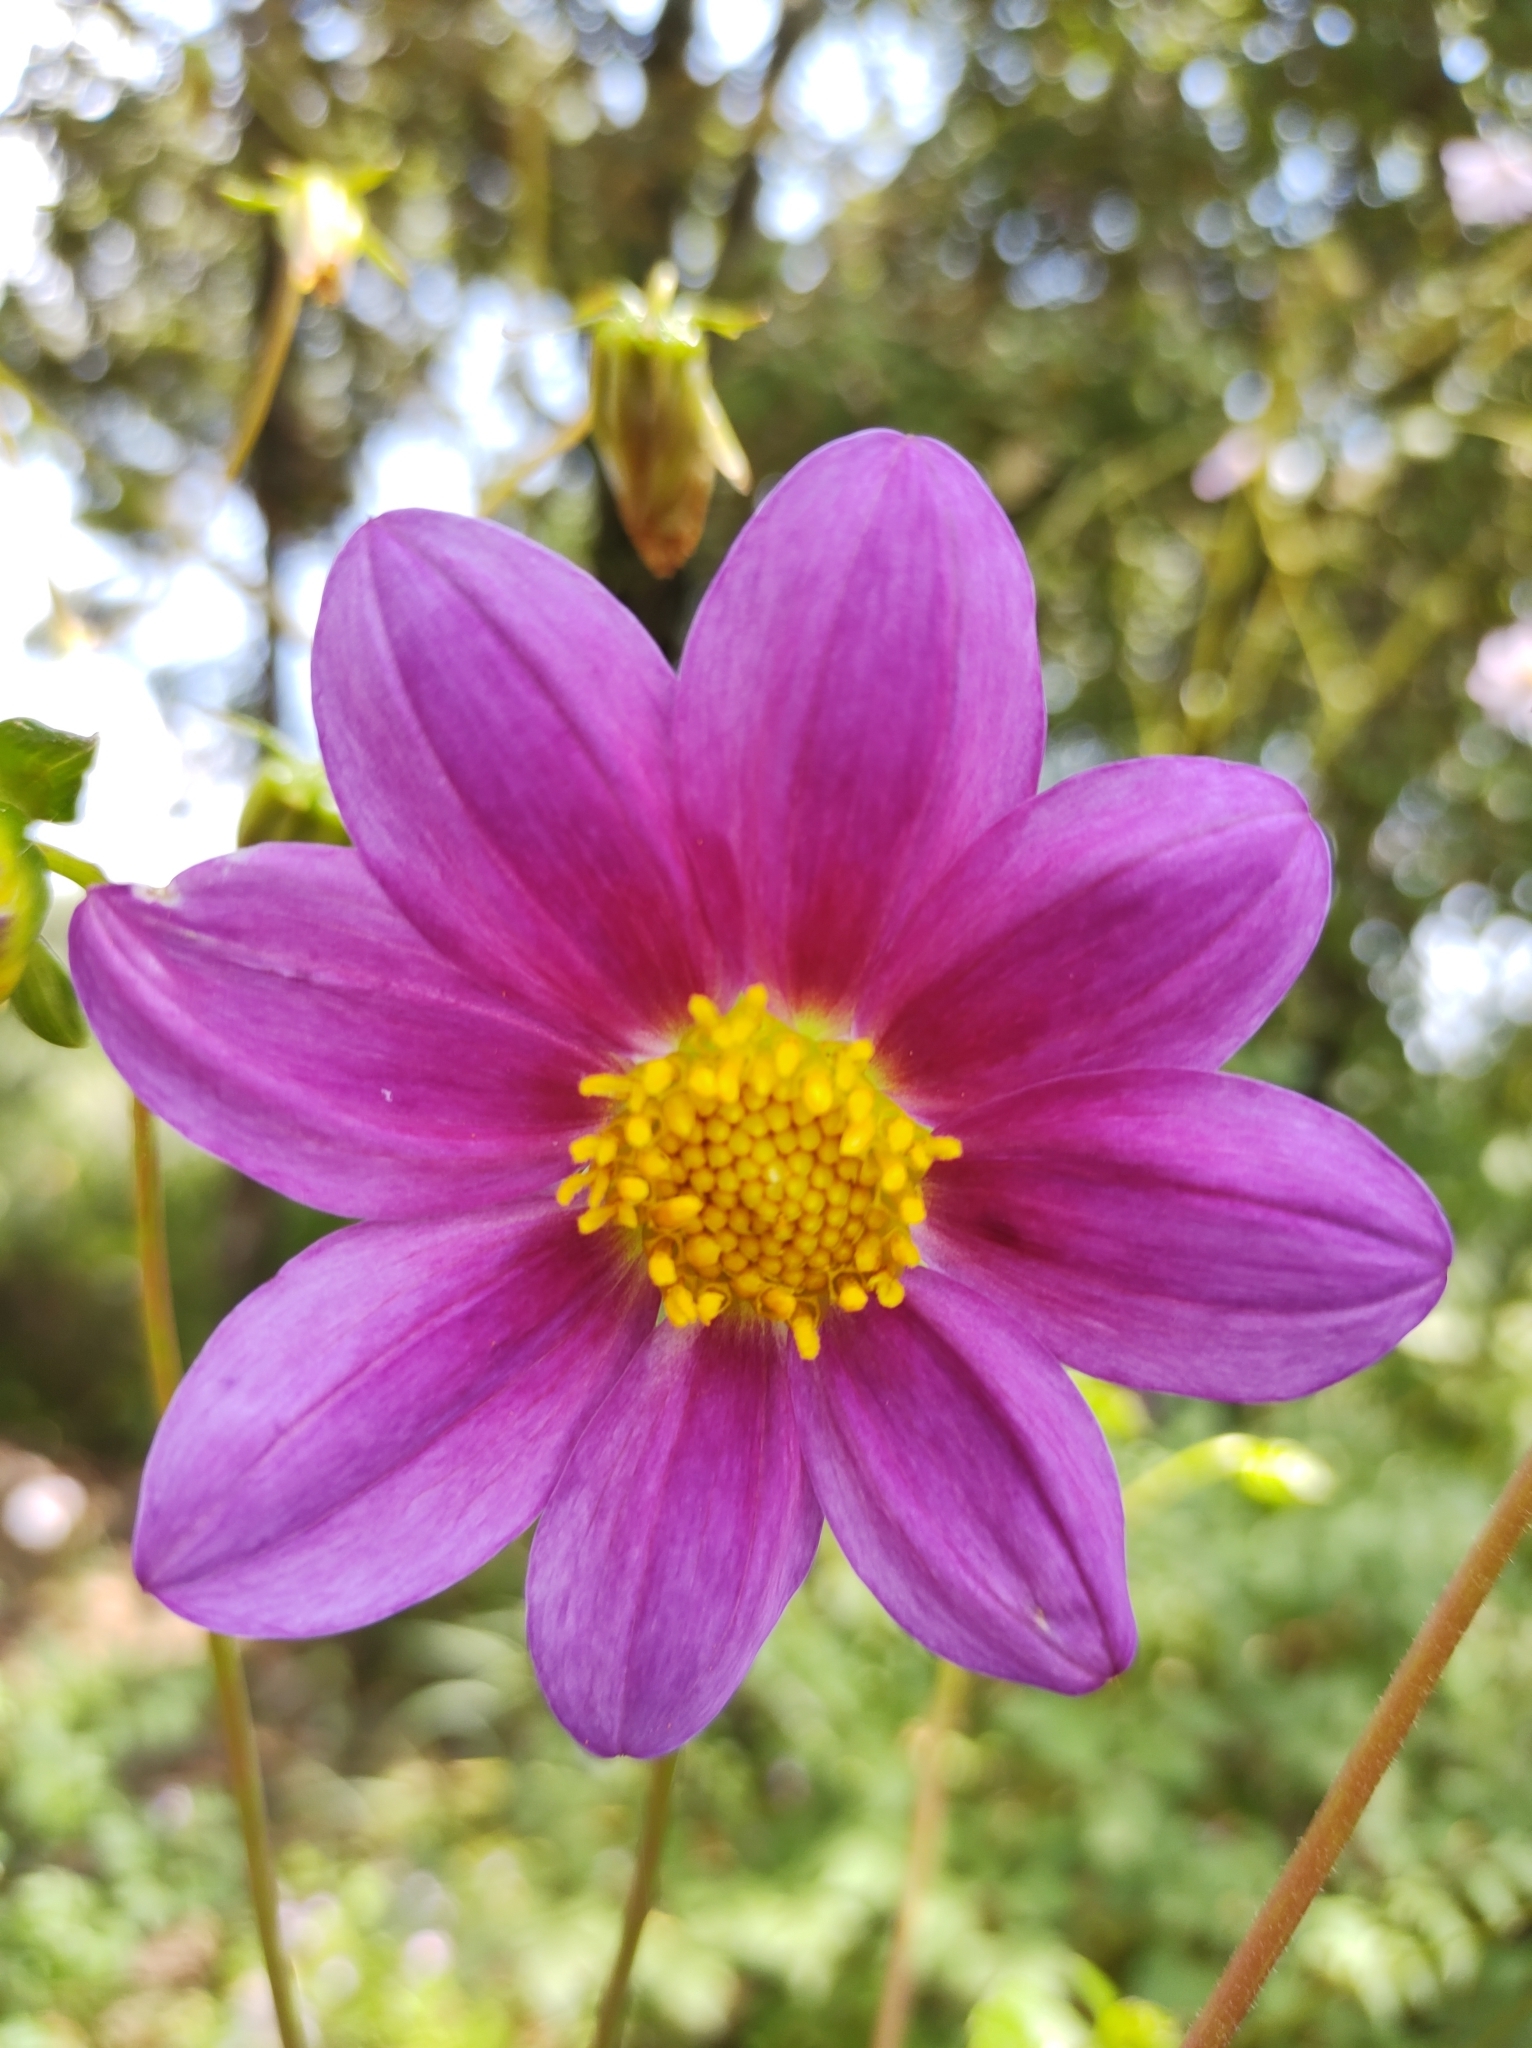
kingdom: Plantae
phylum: Tracheophyta
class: Magnoliopsida
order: Asterales
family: Asteraceae
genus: Dahlia
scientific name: Dahlia imperialis
